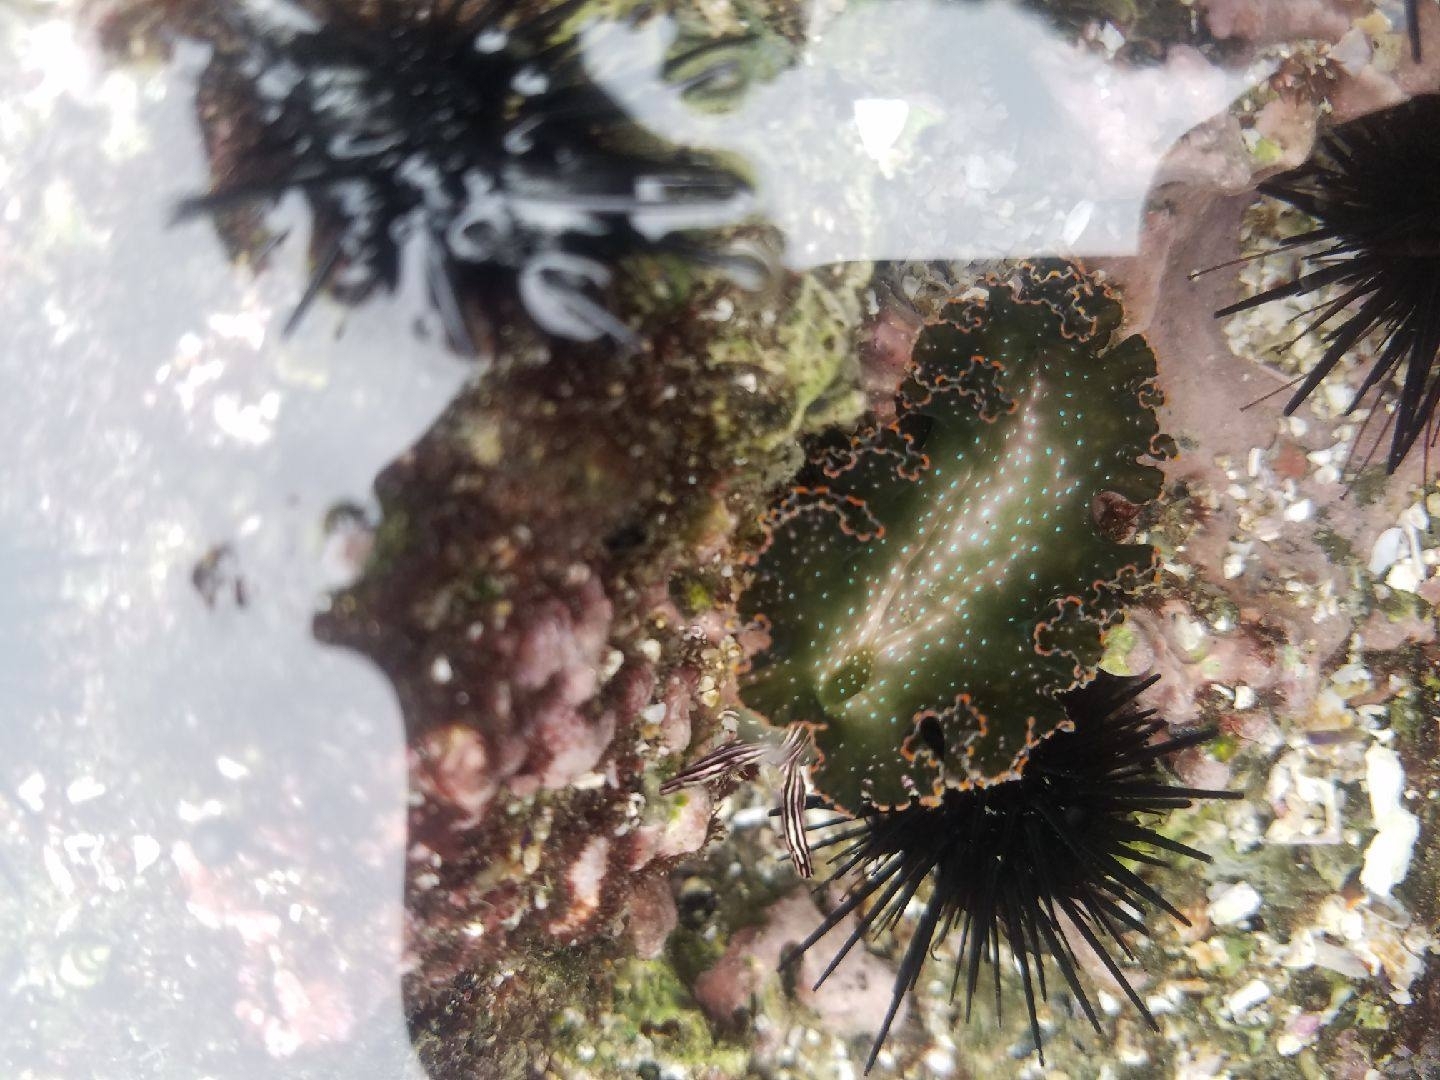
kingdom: Animalia
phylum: Mollusca
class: Gastropoda
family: Plakobranchidae
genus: Elysia
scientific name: Elysia diomedea
